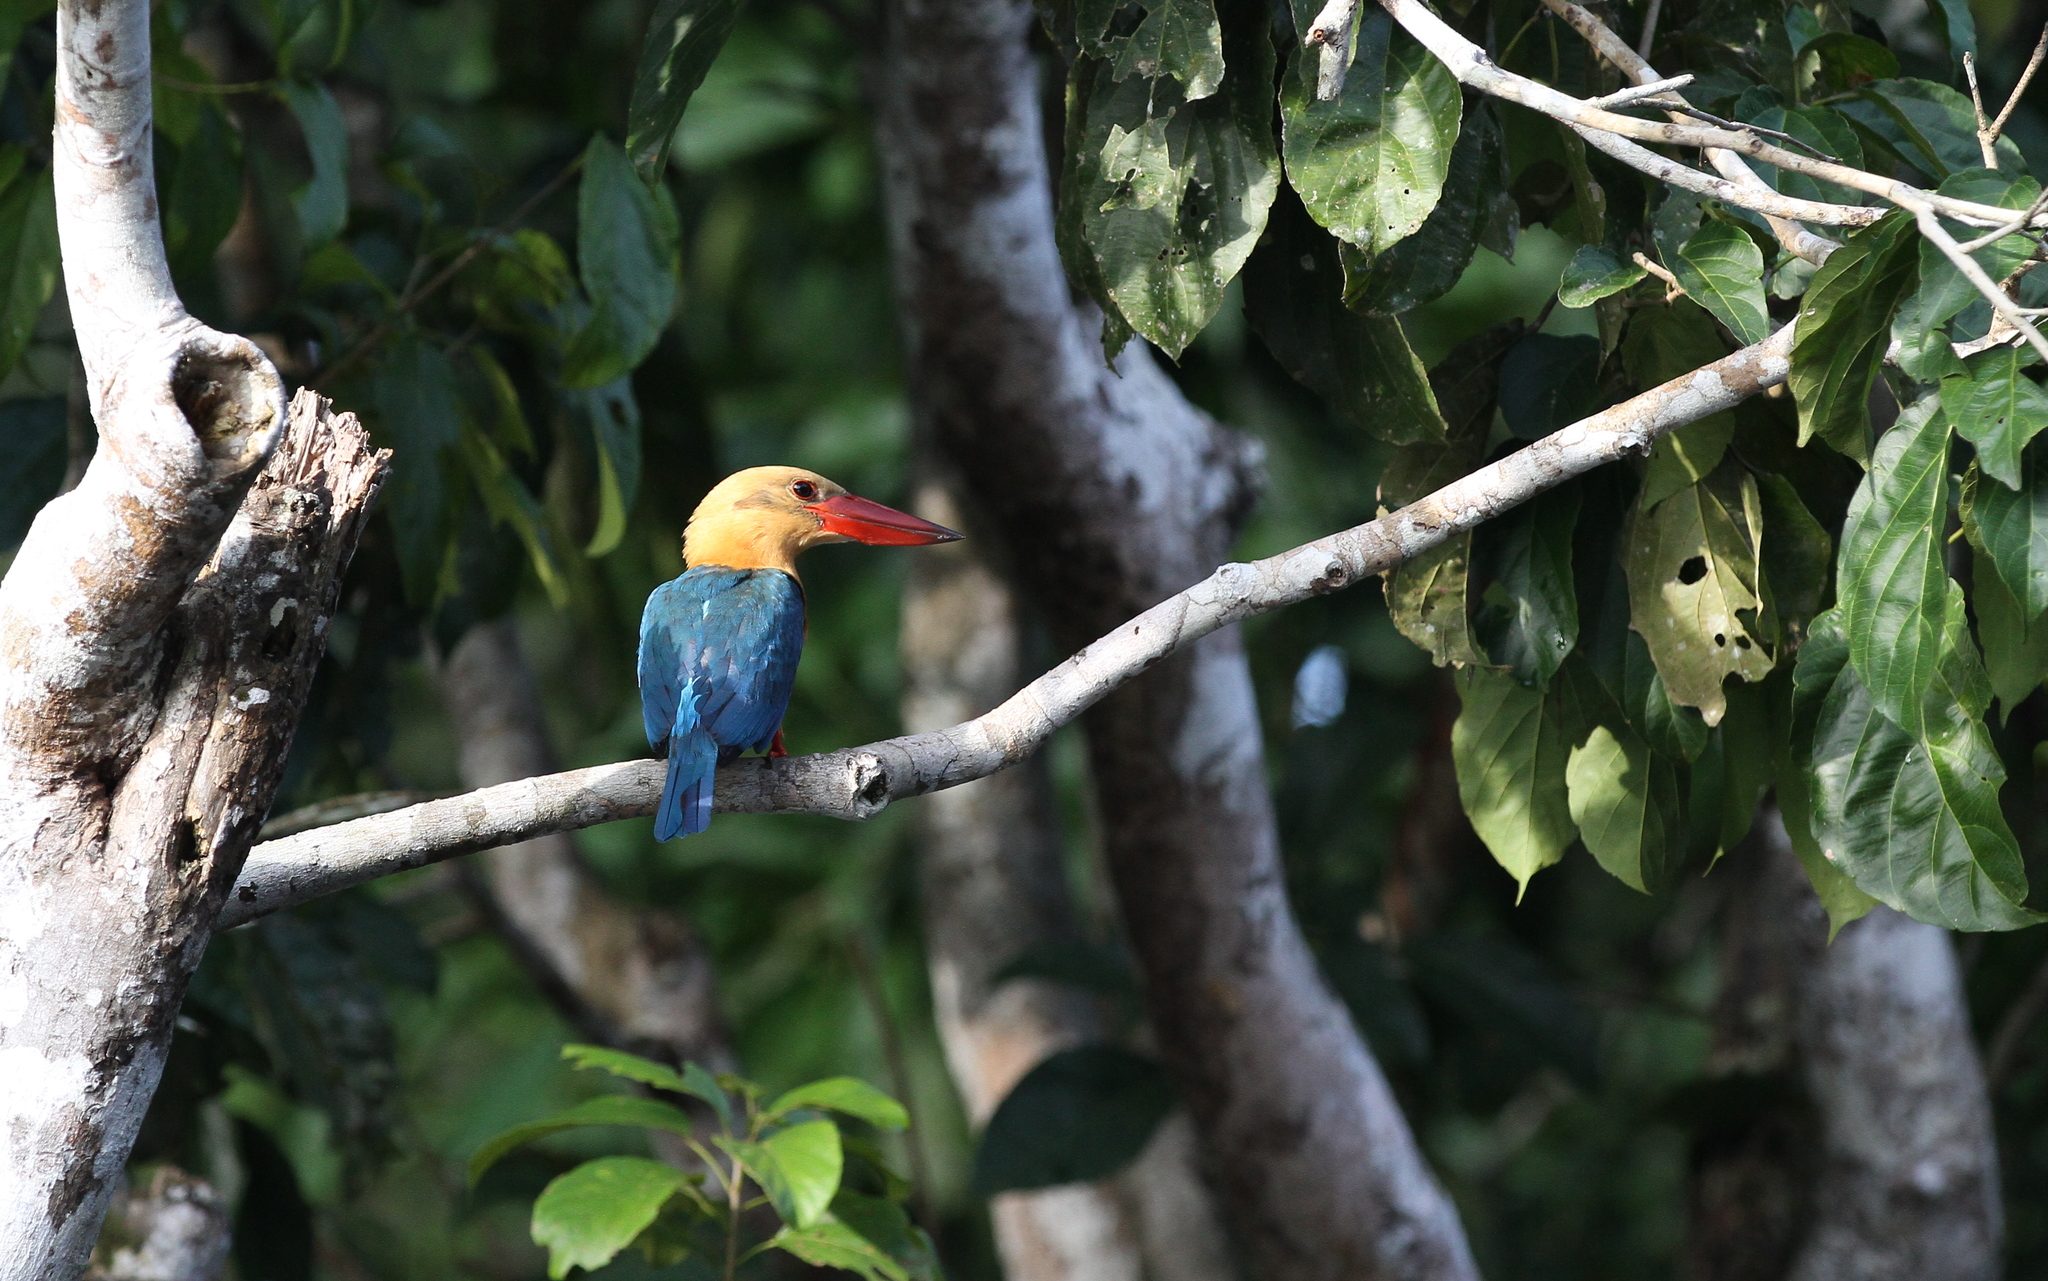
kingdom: Animalia
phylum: Chordata
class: Aves
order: Coraciiformes
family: Alcedinidae
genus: Pelargopsis
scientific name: Pelargopsis capensis
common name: Stork-billed kingfisher
